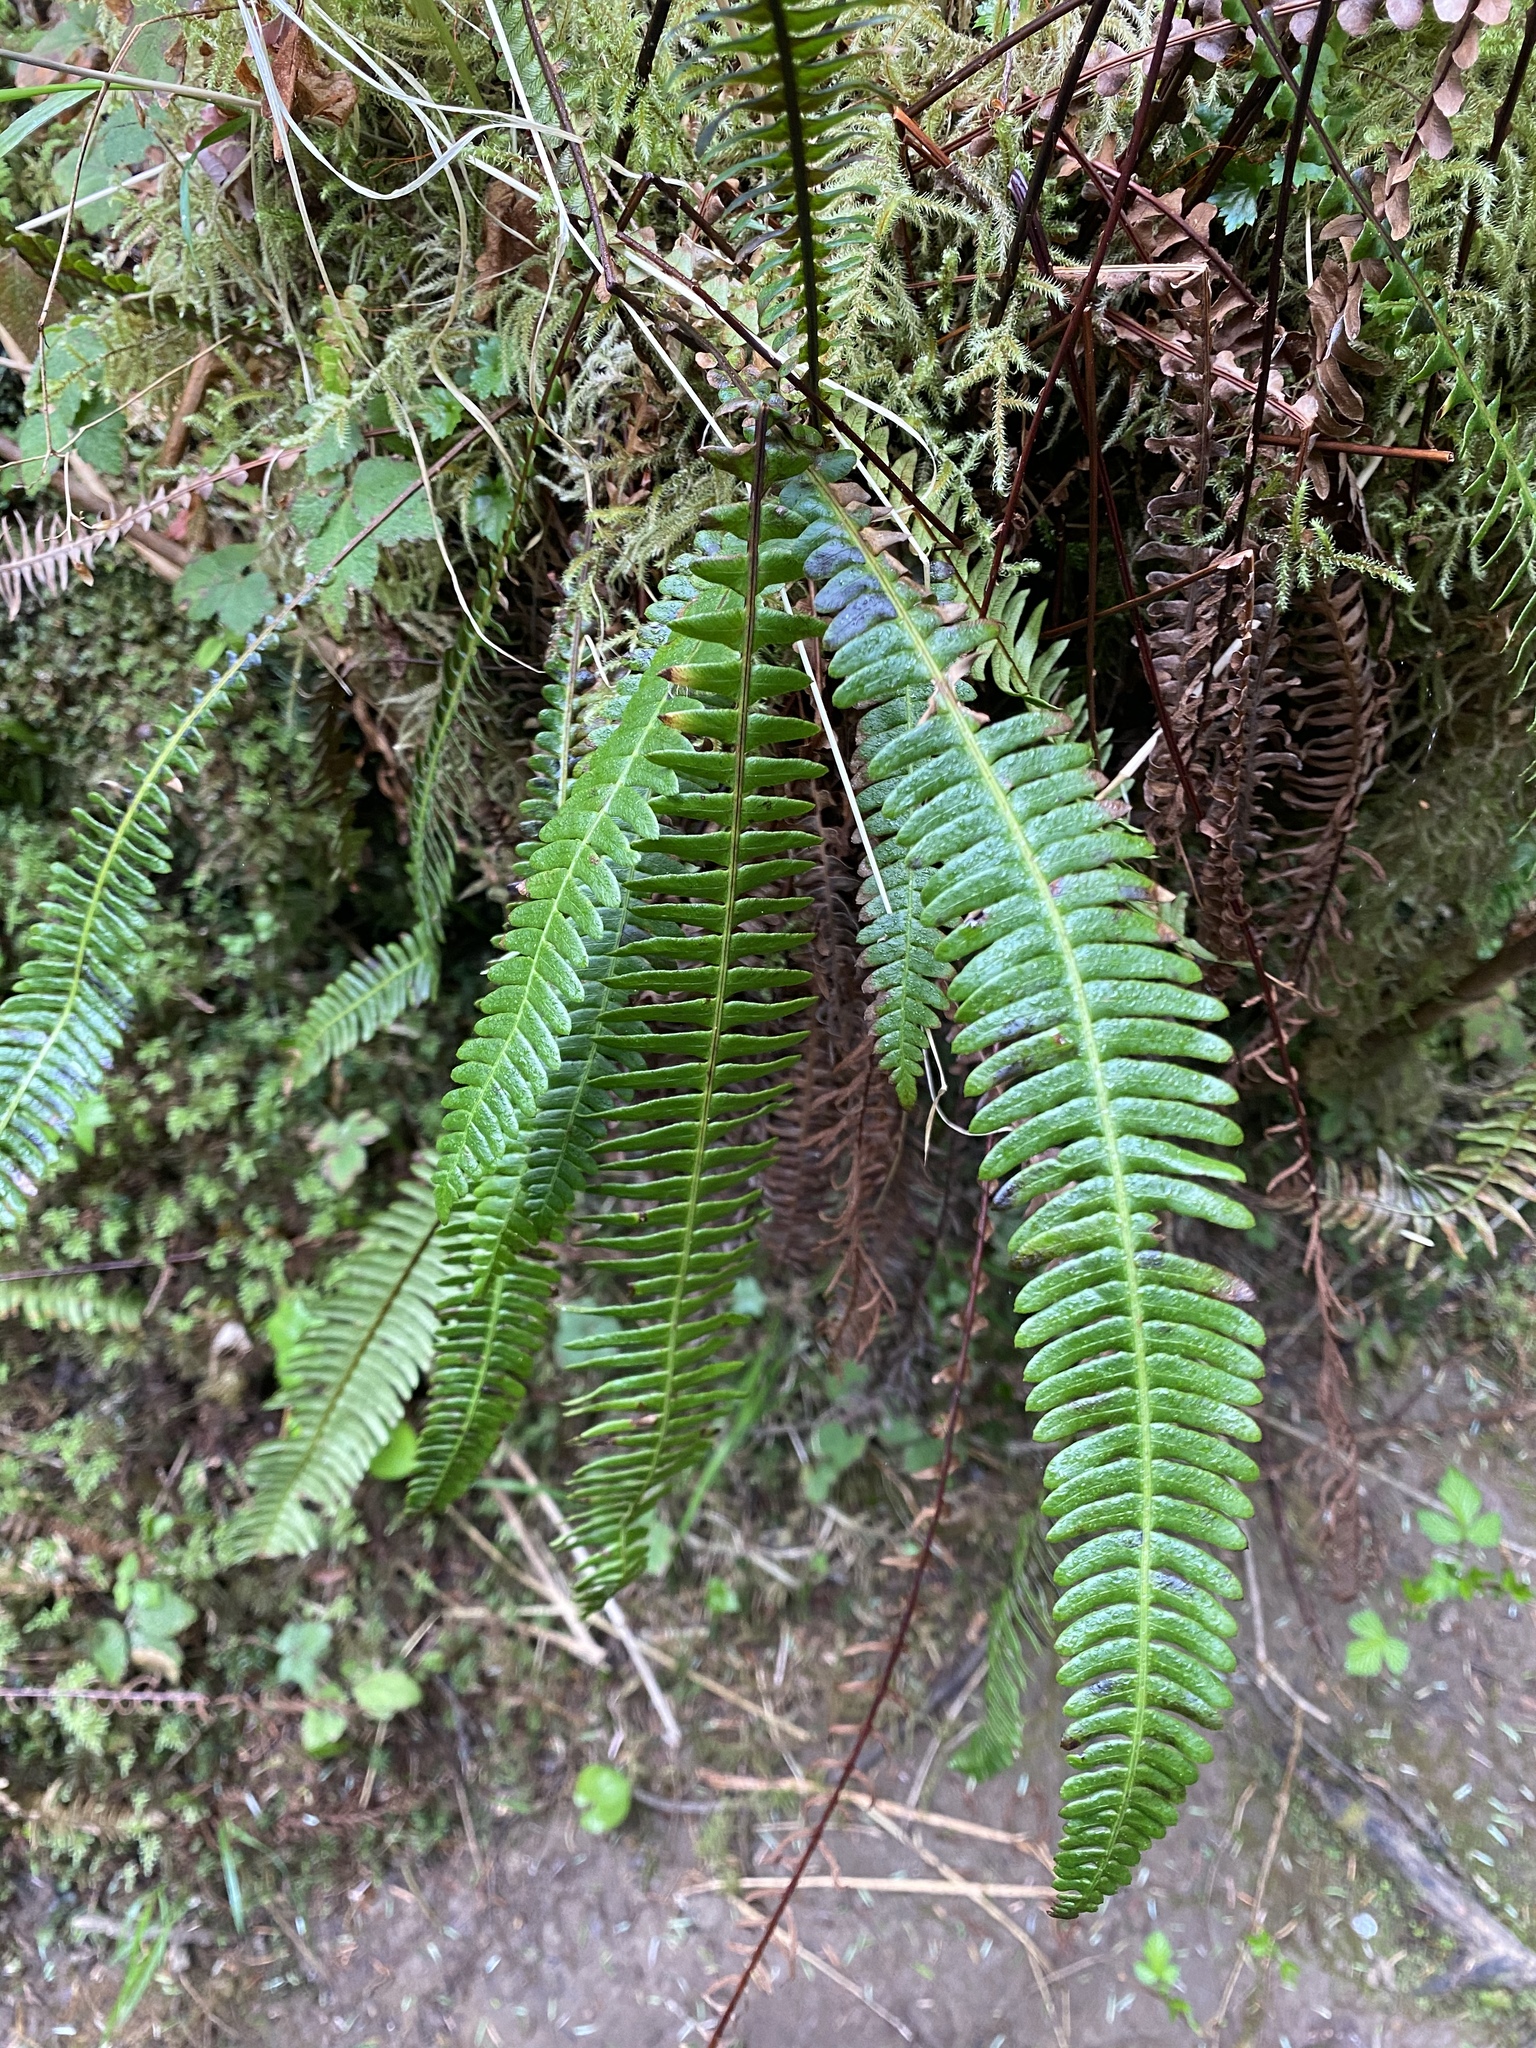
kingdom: Plantae
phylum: Tracheophyta
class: Polypodiopsida
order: Polypodiales
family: Blechnaceae
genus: Struthiopteris
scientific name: Struthiopteris spicant
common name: Deer fern
